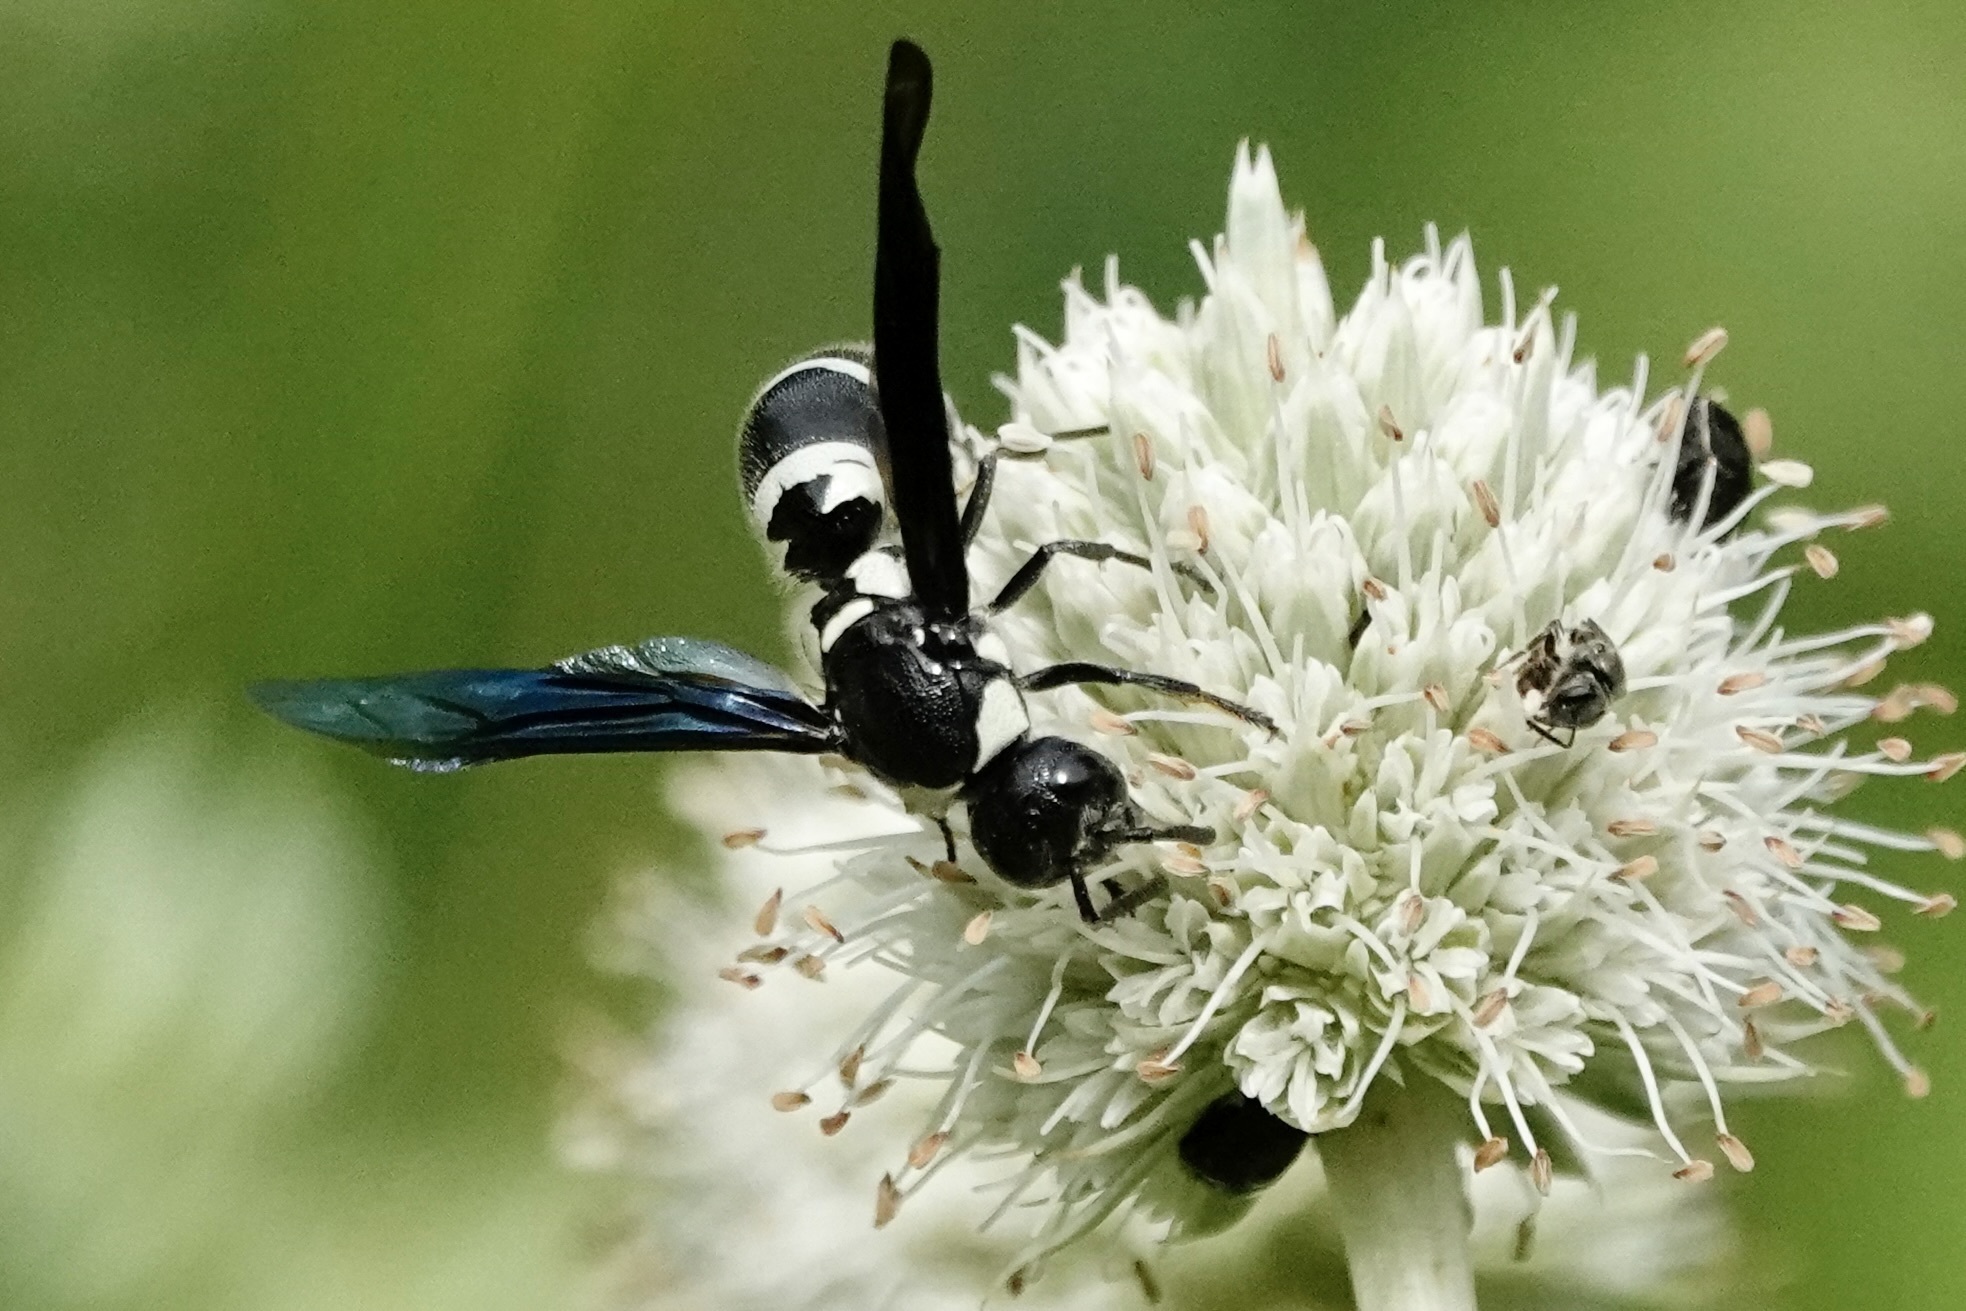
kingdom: Animalia
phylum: Arthropoda
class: Insecta
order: Hymenoptera
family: Eumenidae
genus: Pseudodynerus
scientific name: Pseudodynerus quadrisectus
